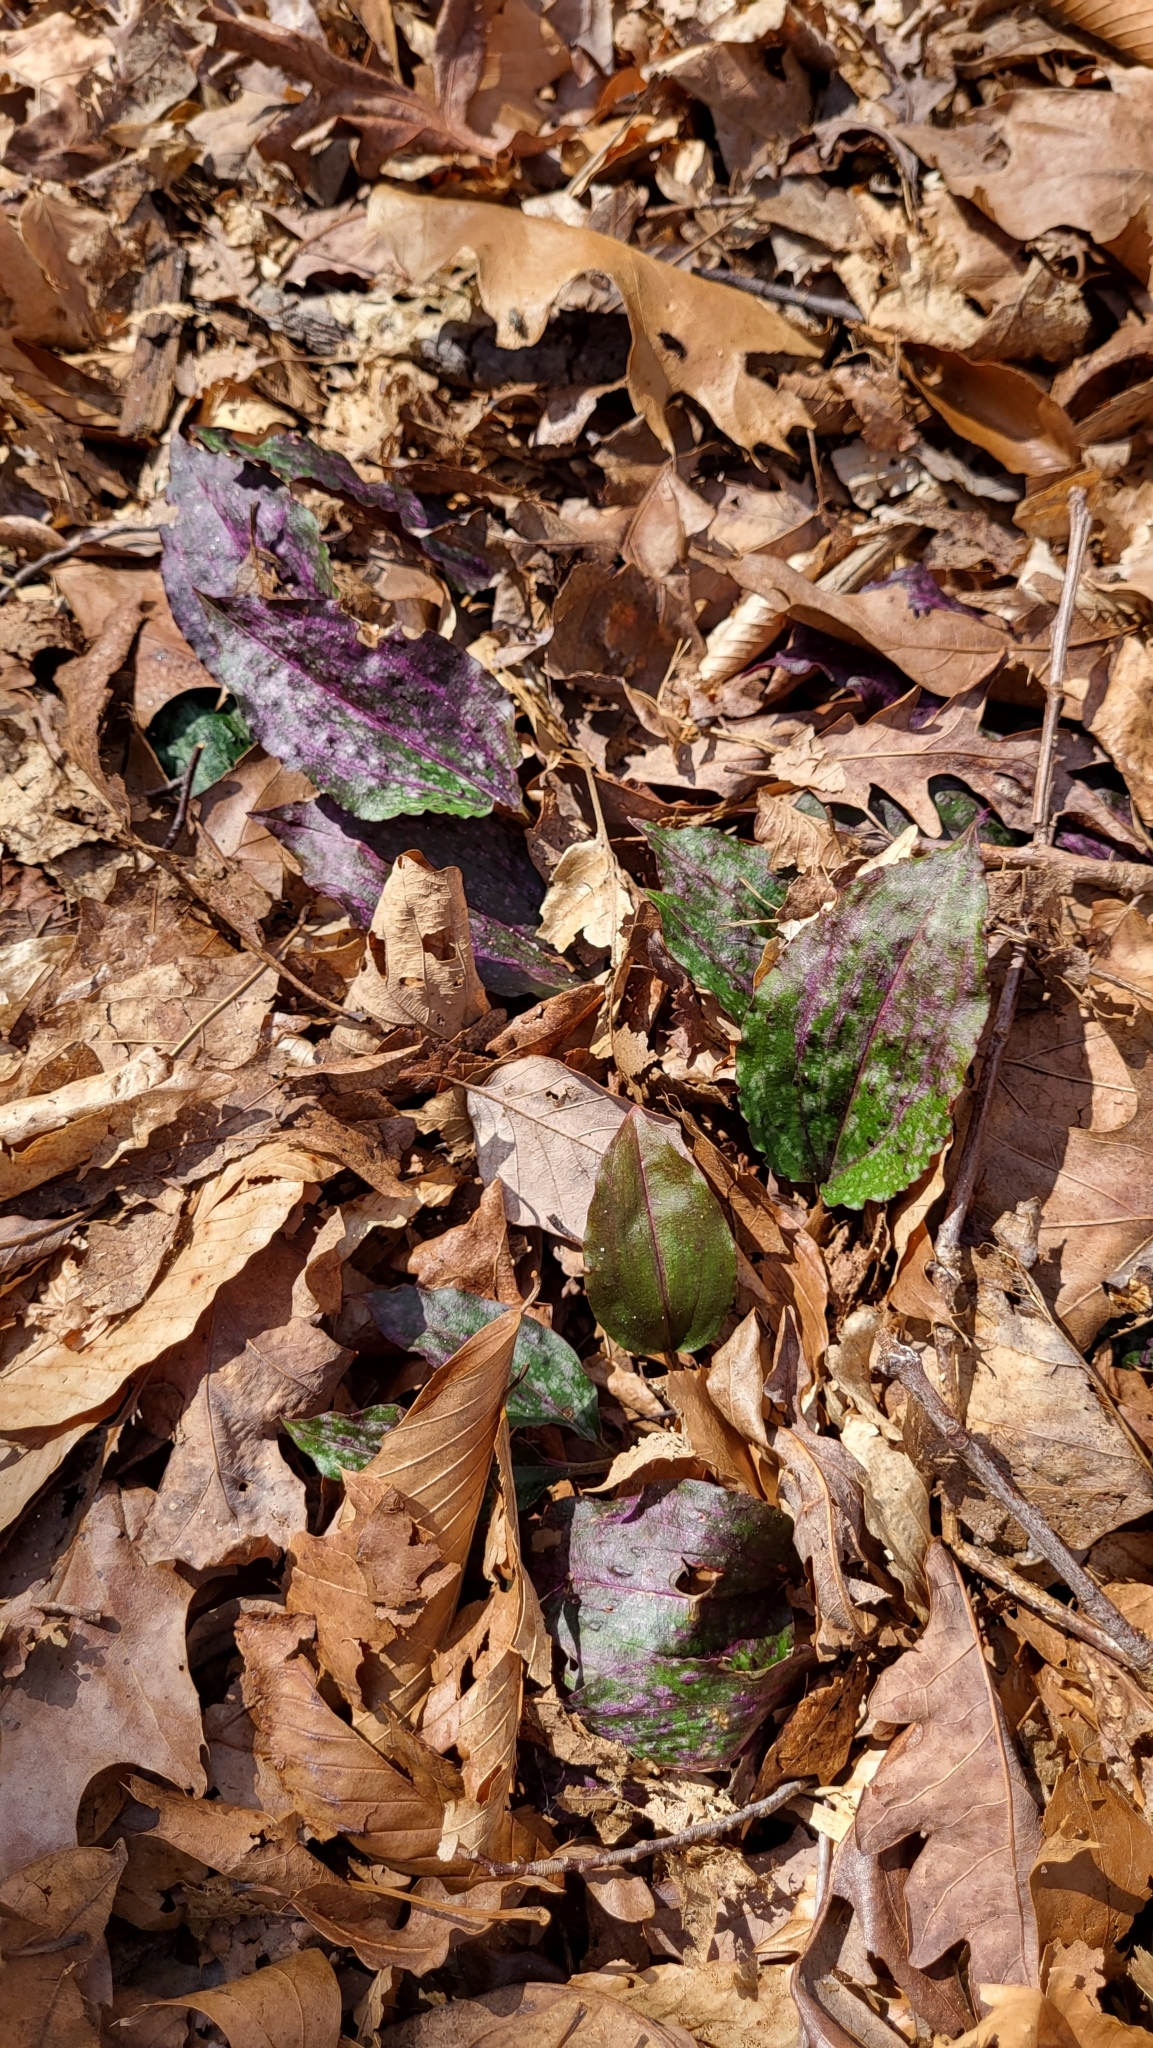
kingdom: Plantae
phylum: Tracheophyta
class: Liliopsida
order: Asparagales
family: Orchidaceae
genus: Tipularia
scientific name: Tipularia discolor
